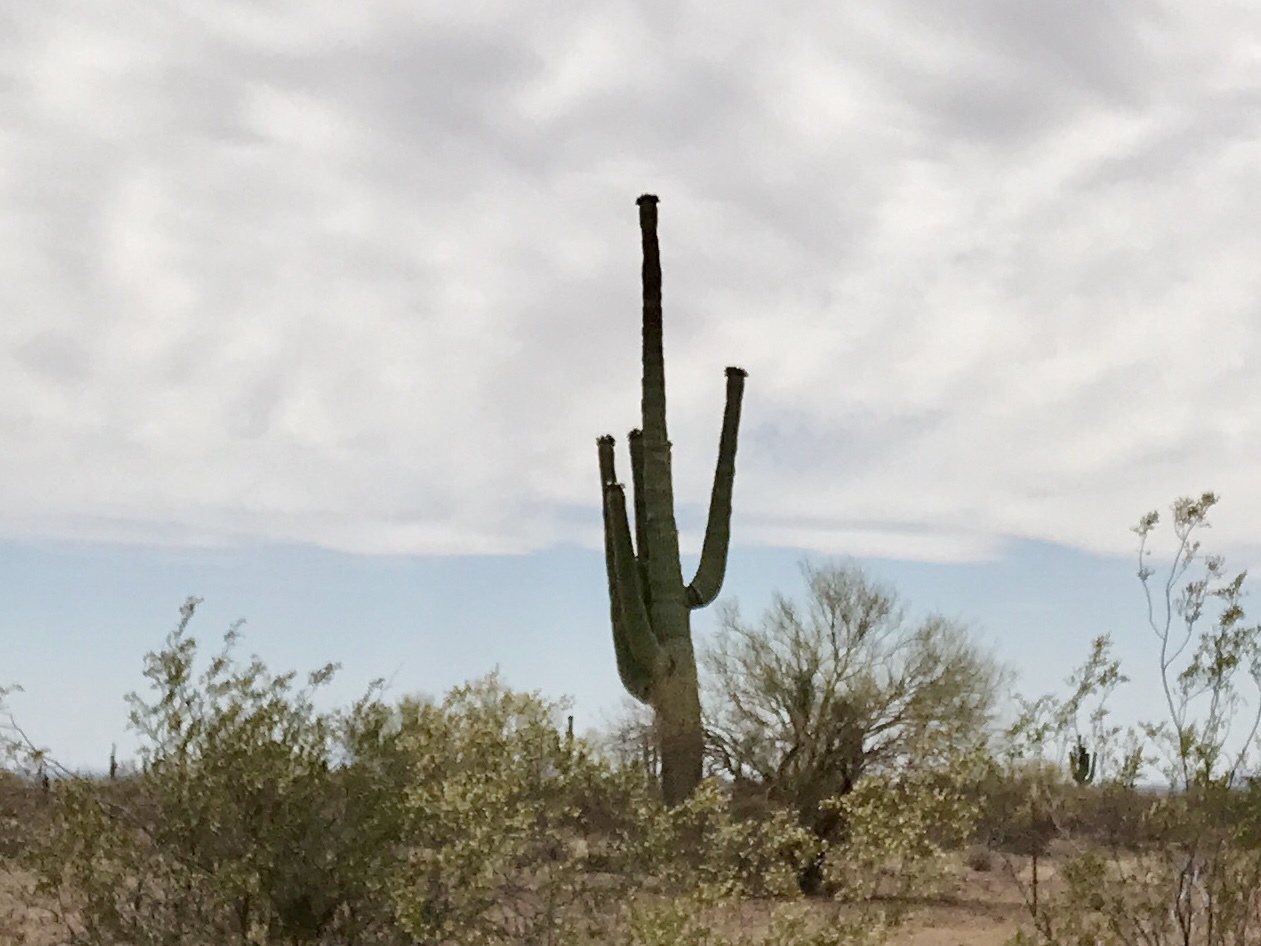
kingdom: Plantae
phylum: Tracheophyta
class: Magnoliopsida
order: Caryophyllales
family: Cactaceae
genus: Carnegiea
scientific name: Carnegiea gigantea
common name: Saguaro
